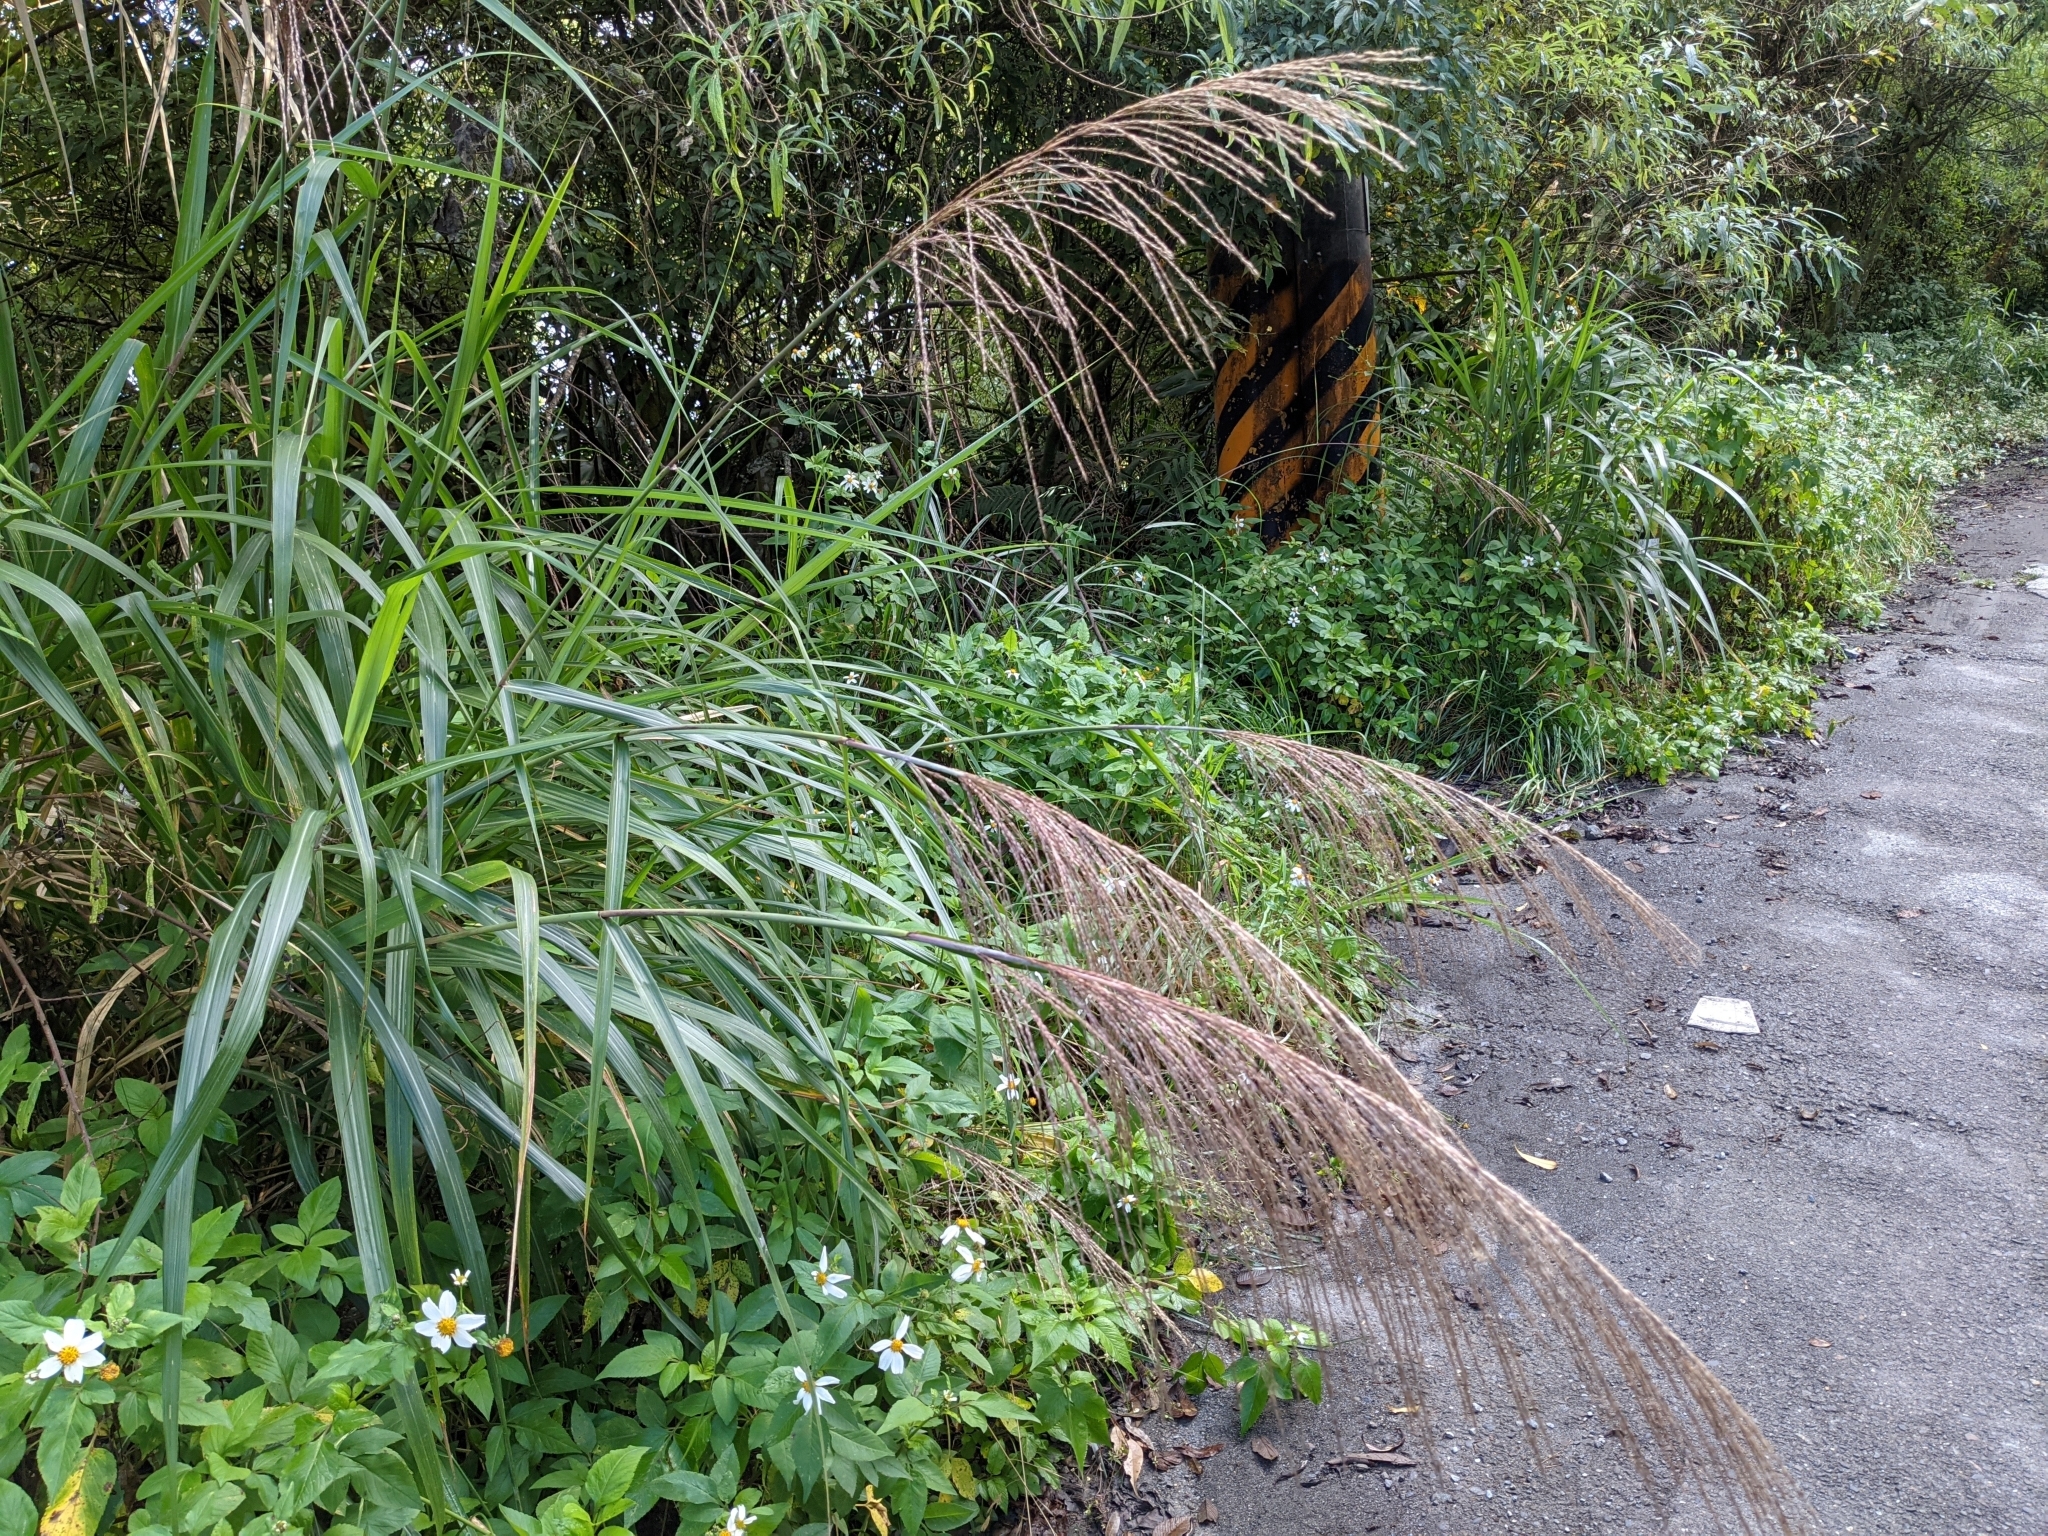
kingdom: Plantae
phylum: Tracheophyta
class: Liliopsida
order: Poales
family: Poaceae
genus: Miscanthus
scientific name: Miscanthus sinensis
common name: Chinese silvergrass
